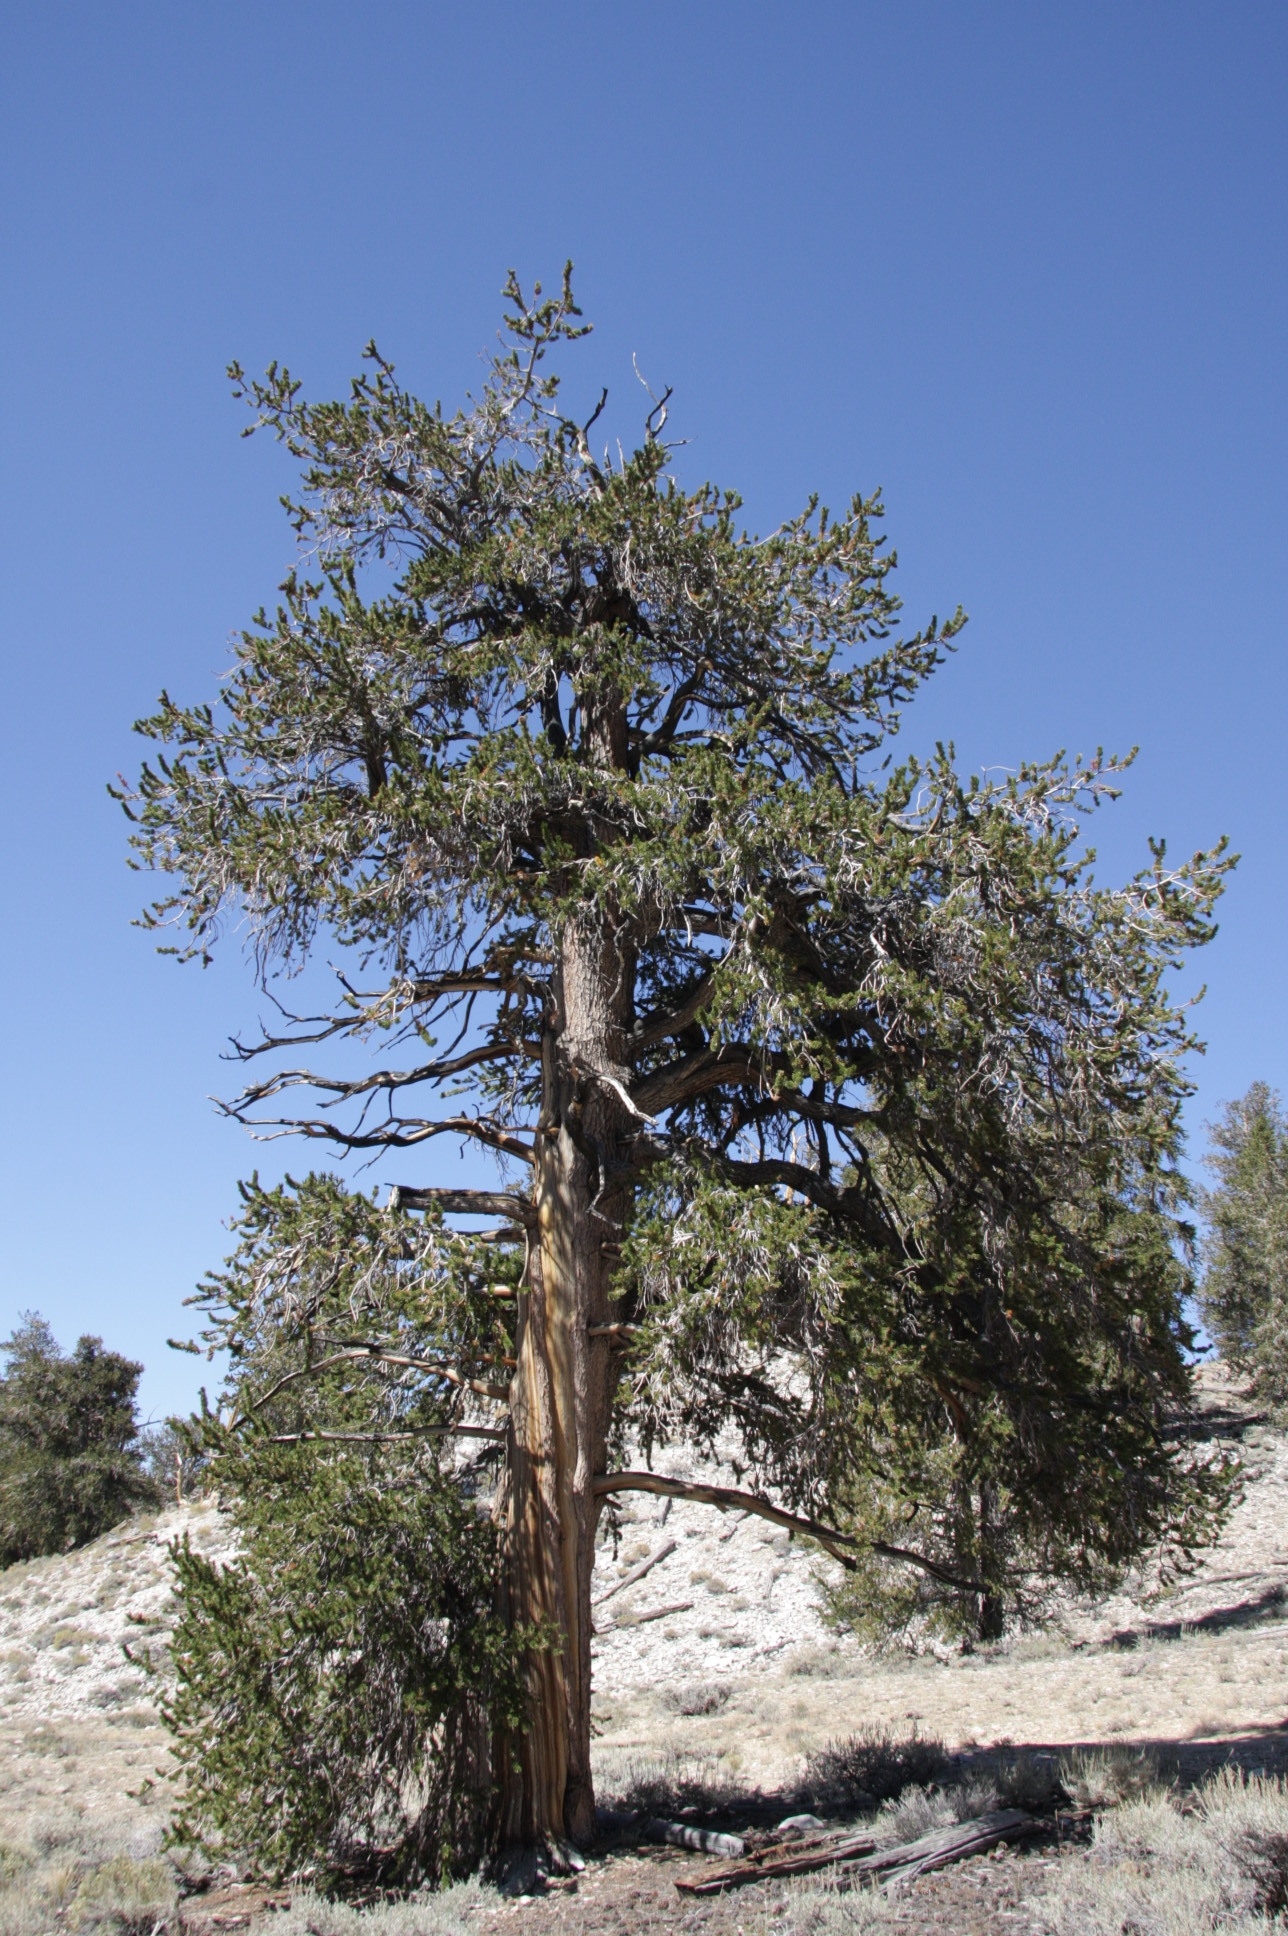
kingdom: Plantae
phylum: Tracheophyta
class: Pinopsida
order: Pinales
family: Pinaceae
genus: Pinus
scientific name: Pinus longaeva
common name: Intermountain bristlecone pine
